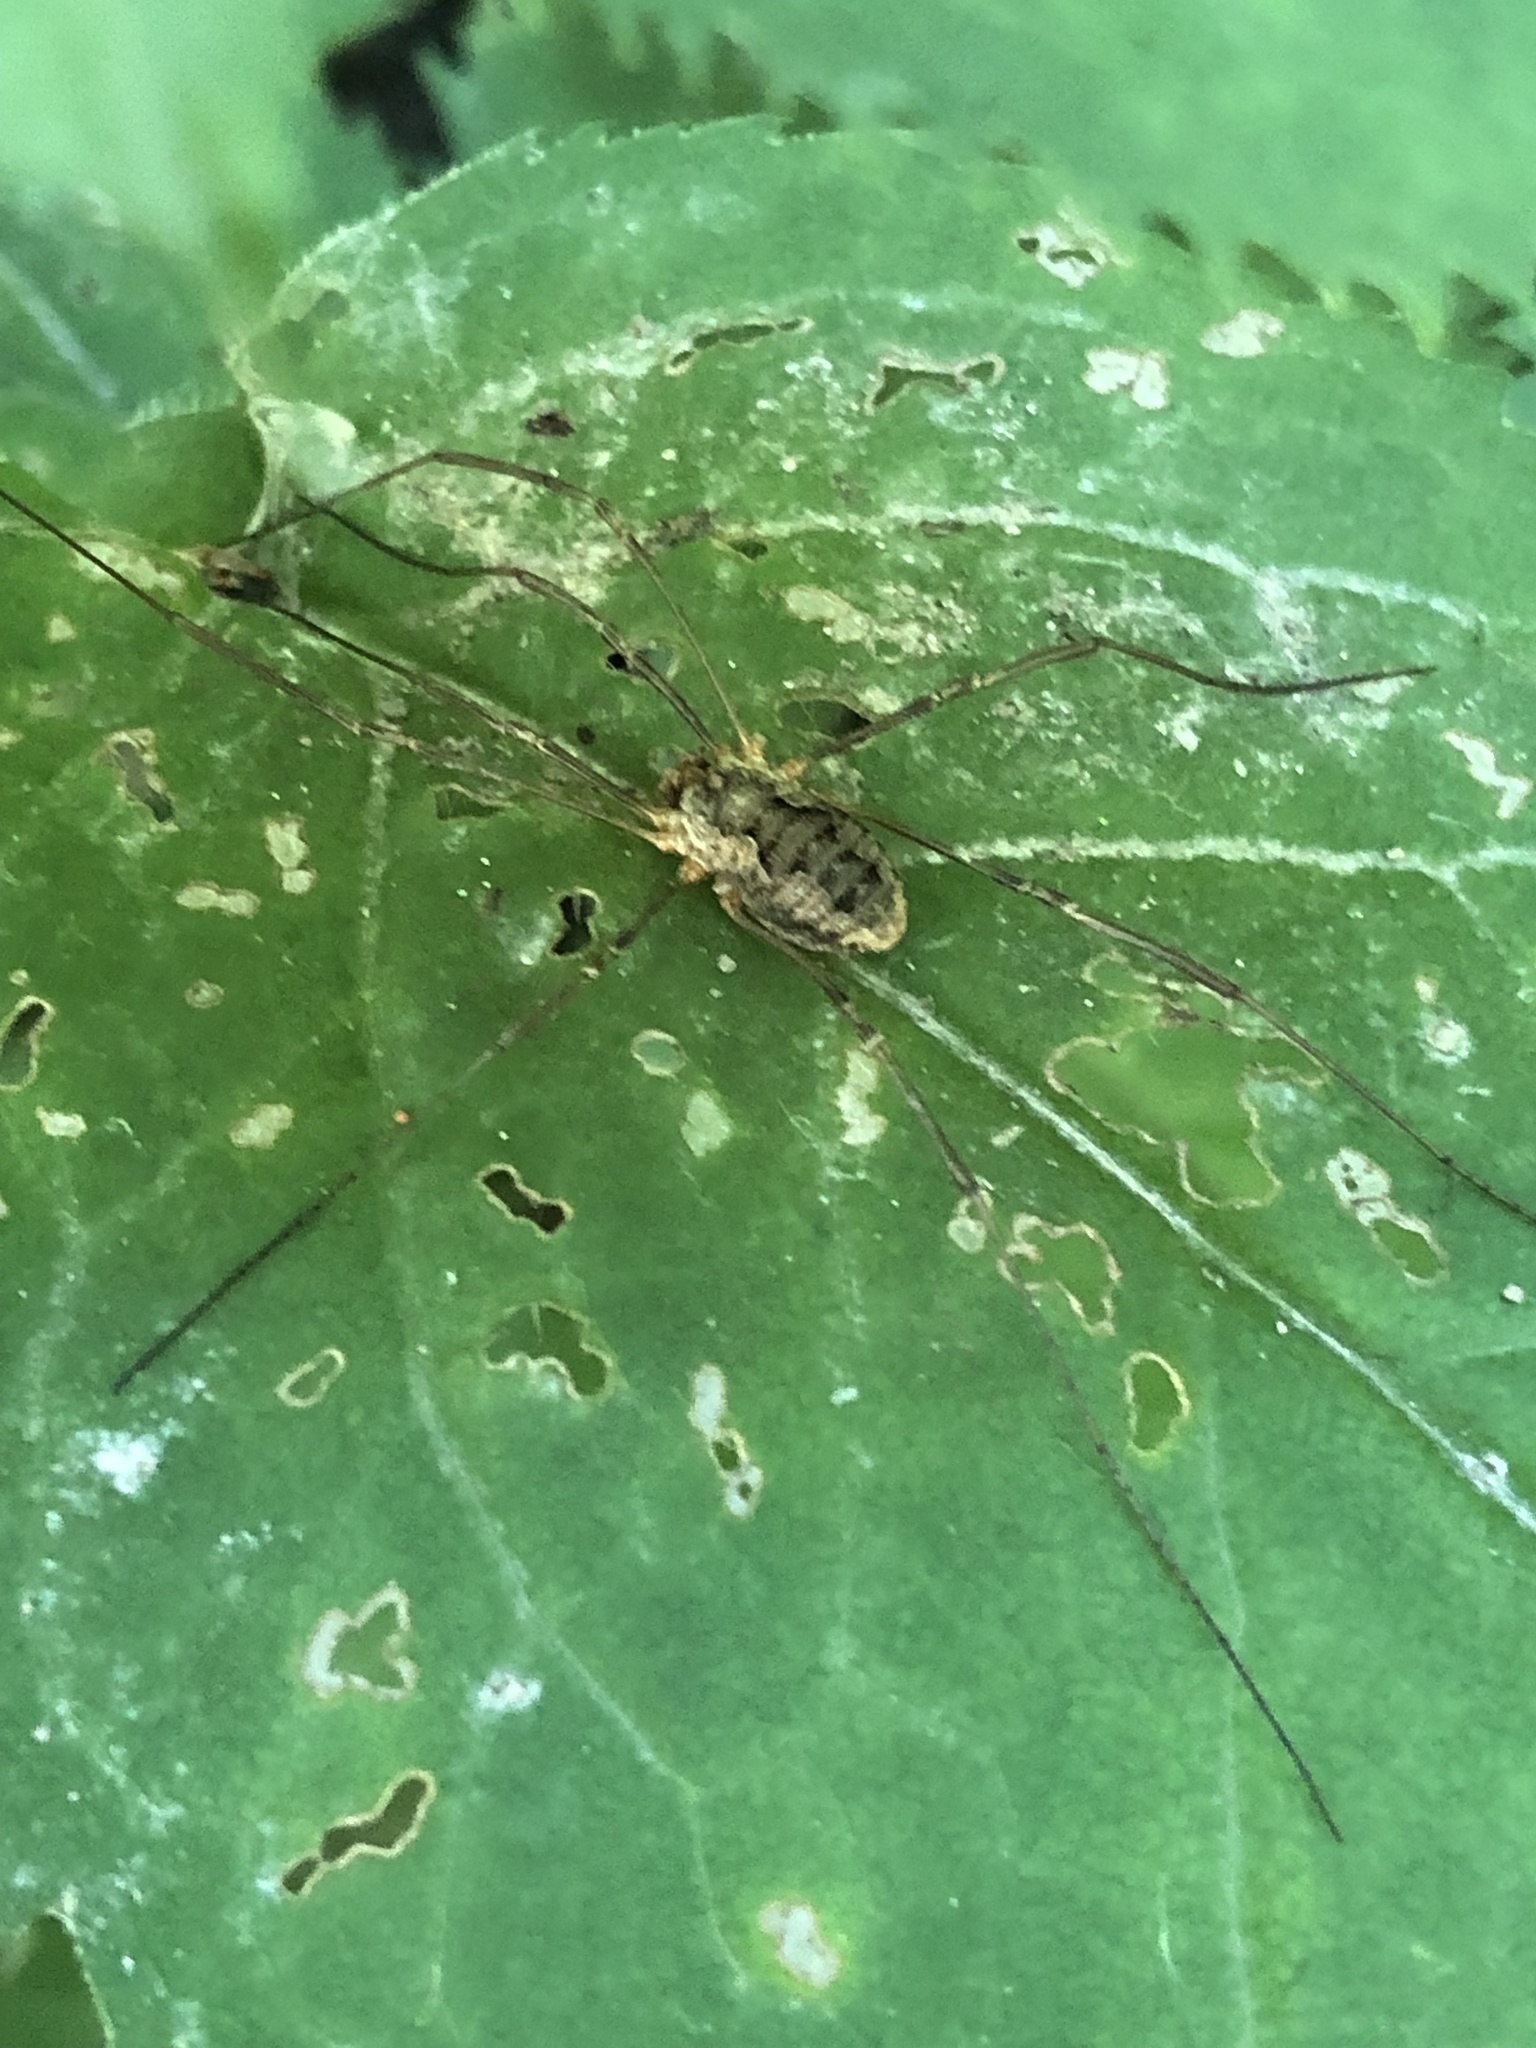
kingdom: Animalia
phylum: Arthropoda
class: Arachnida
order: Opiliones
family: Phalangiidae
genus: Phalangium
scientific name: Phalangium opilio
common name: Daddy longleg
